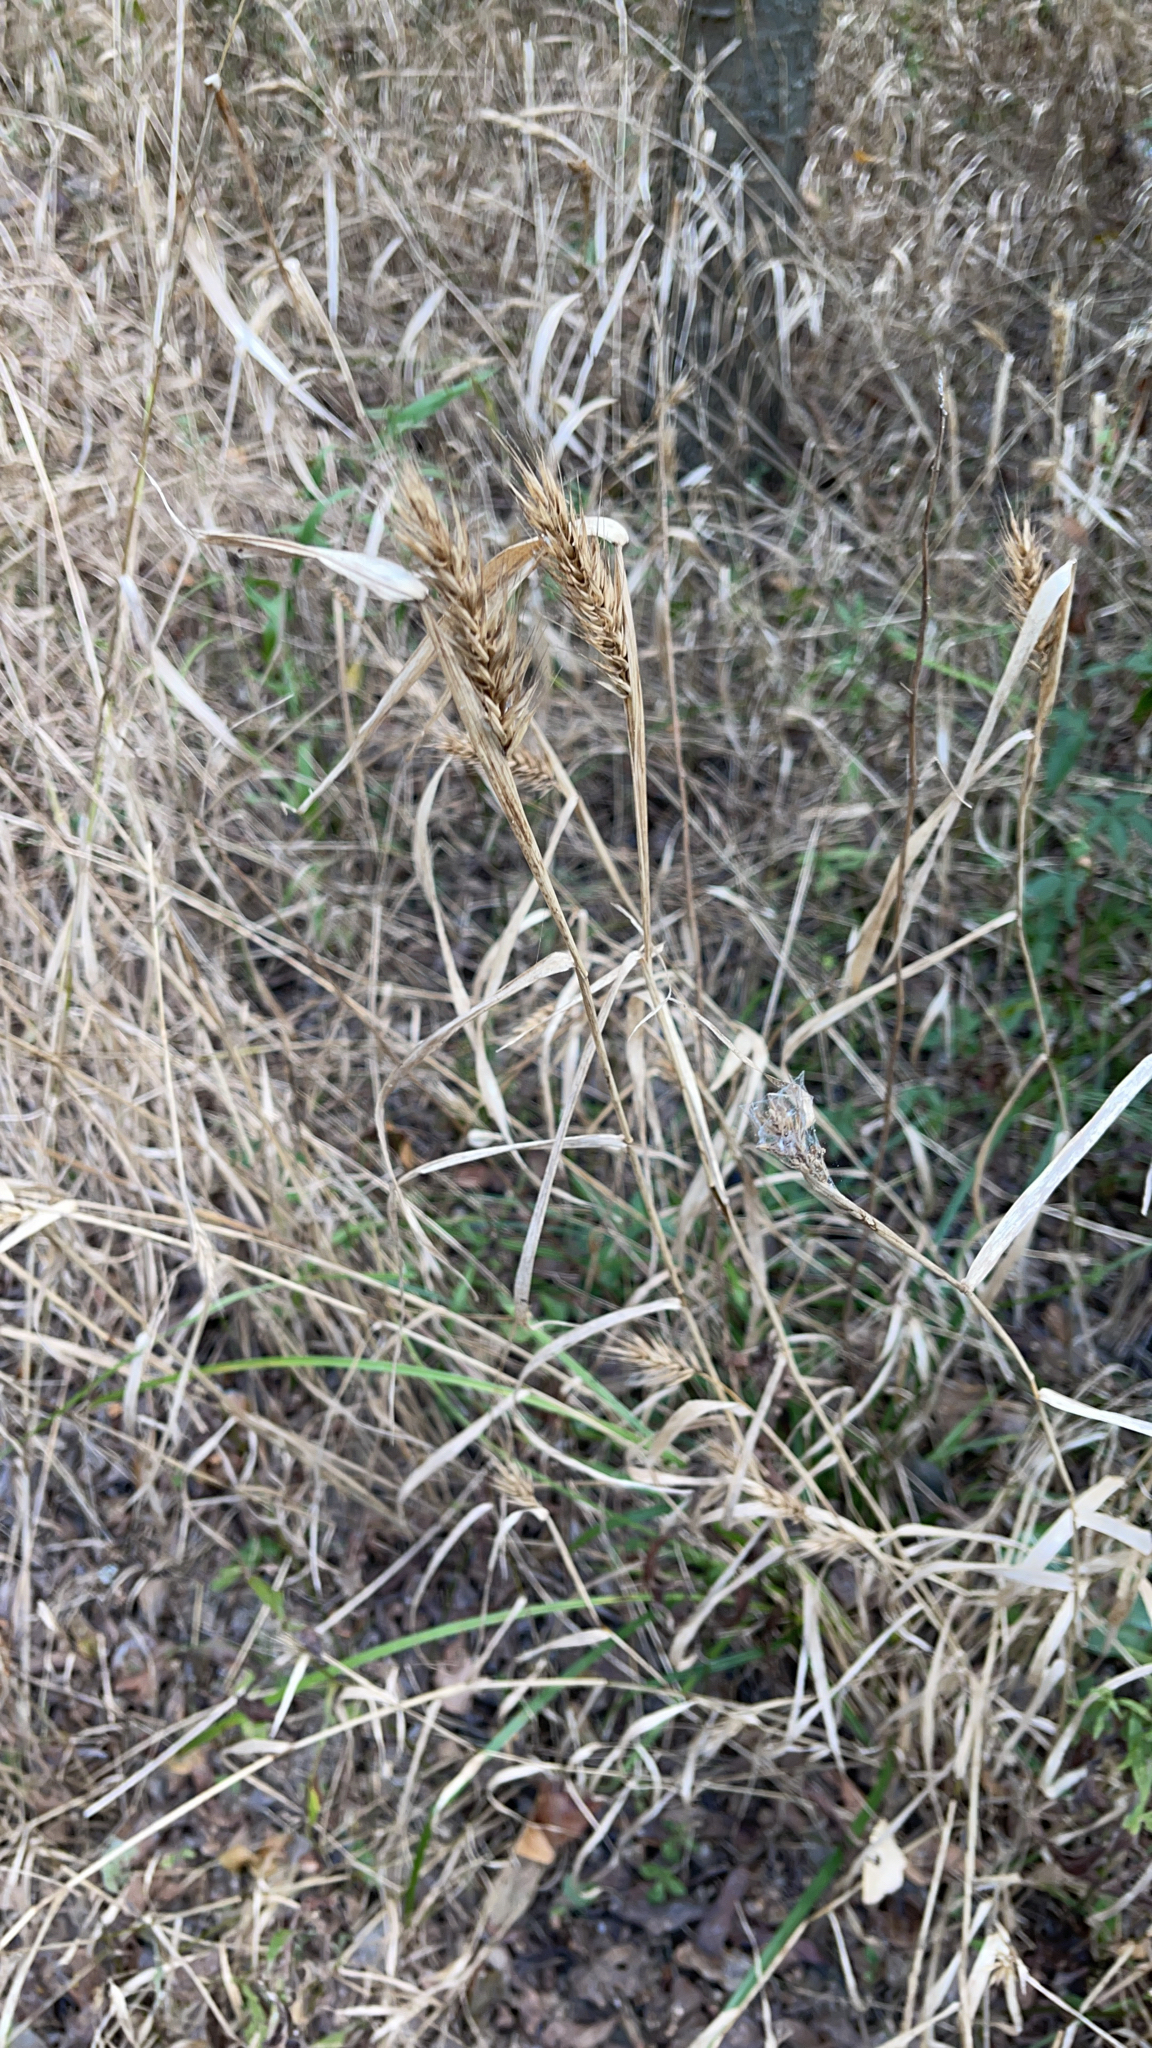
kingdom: Plantae
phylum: Tracheophyta
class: Liliopsida
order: Poales
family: Poaceae
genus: Elymus
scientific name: Elymus virginicus
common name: Common eastern wildrye
